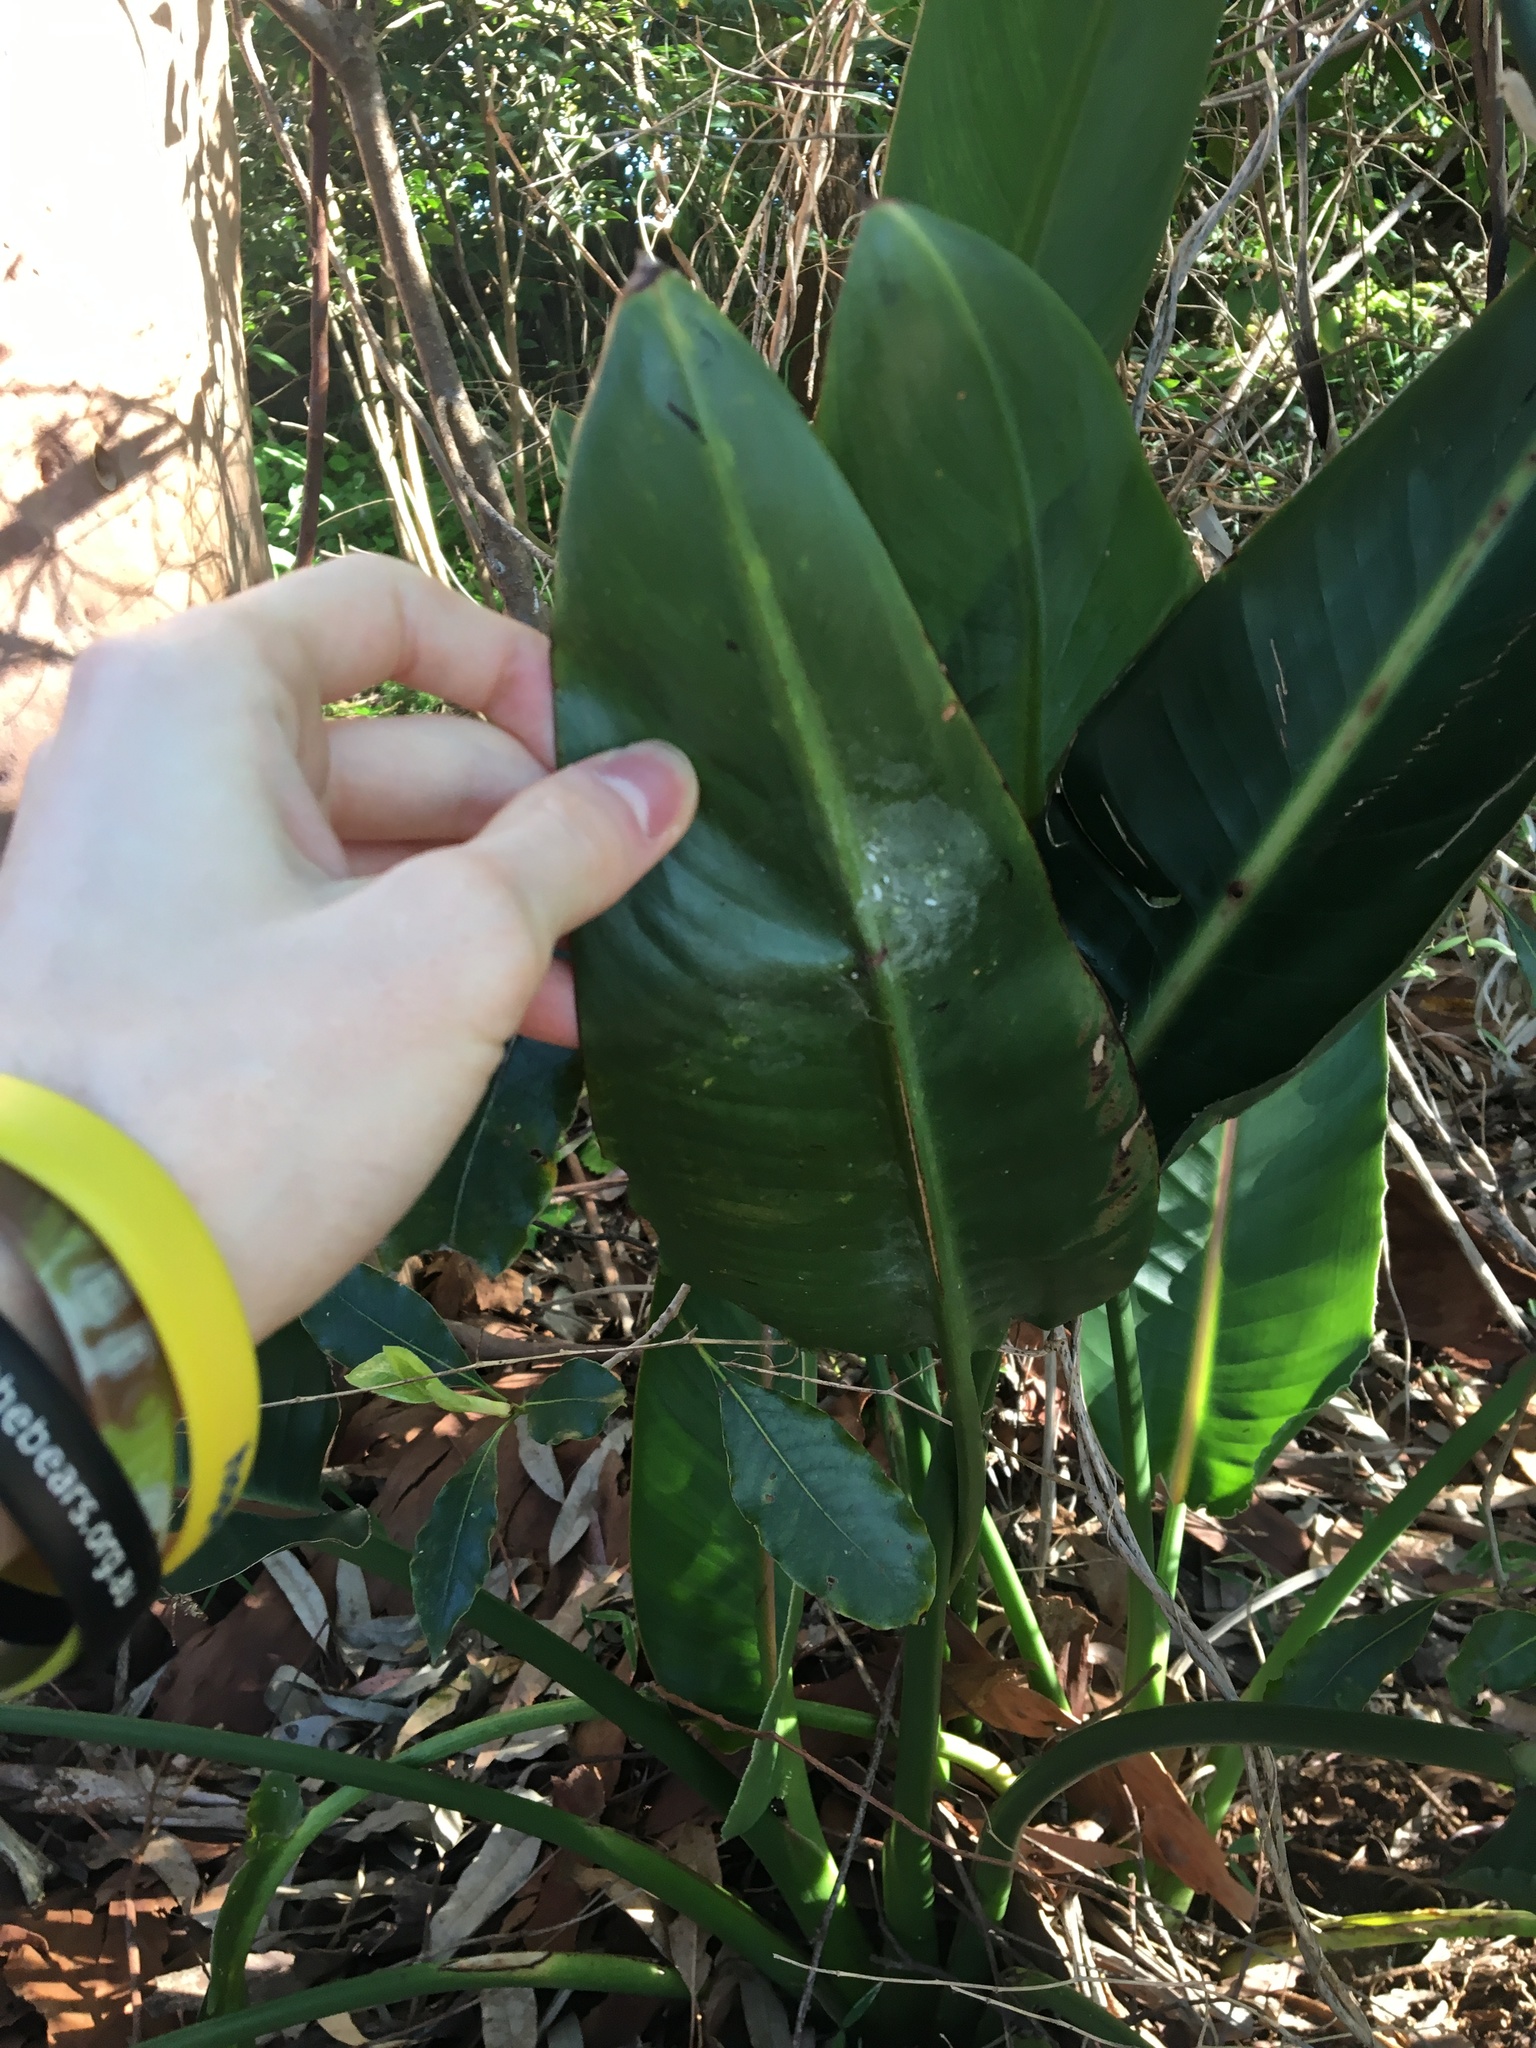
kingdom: Plantae
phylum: Tracheophyta
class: Liliopsida
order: Zingiberales
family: Strelitziaceae
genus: Strelitzia
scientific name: Strelitzia reginae
